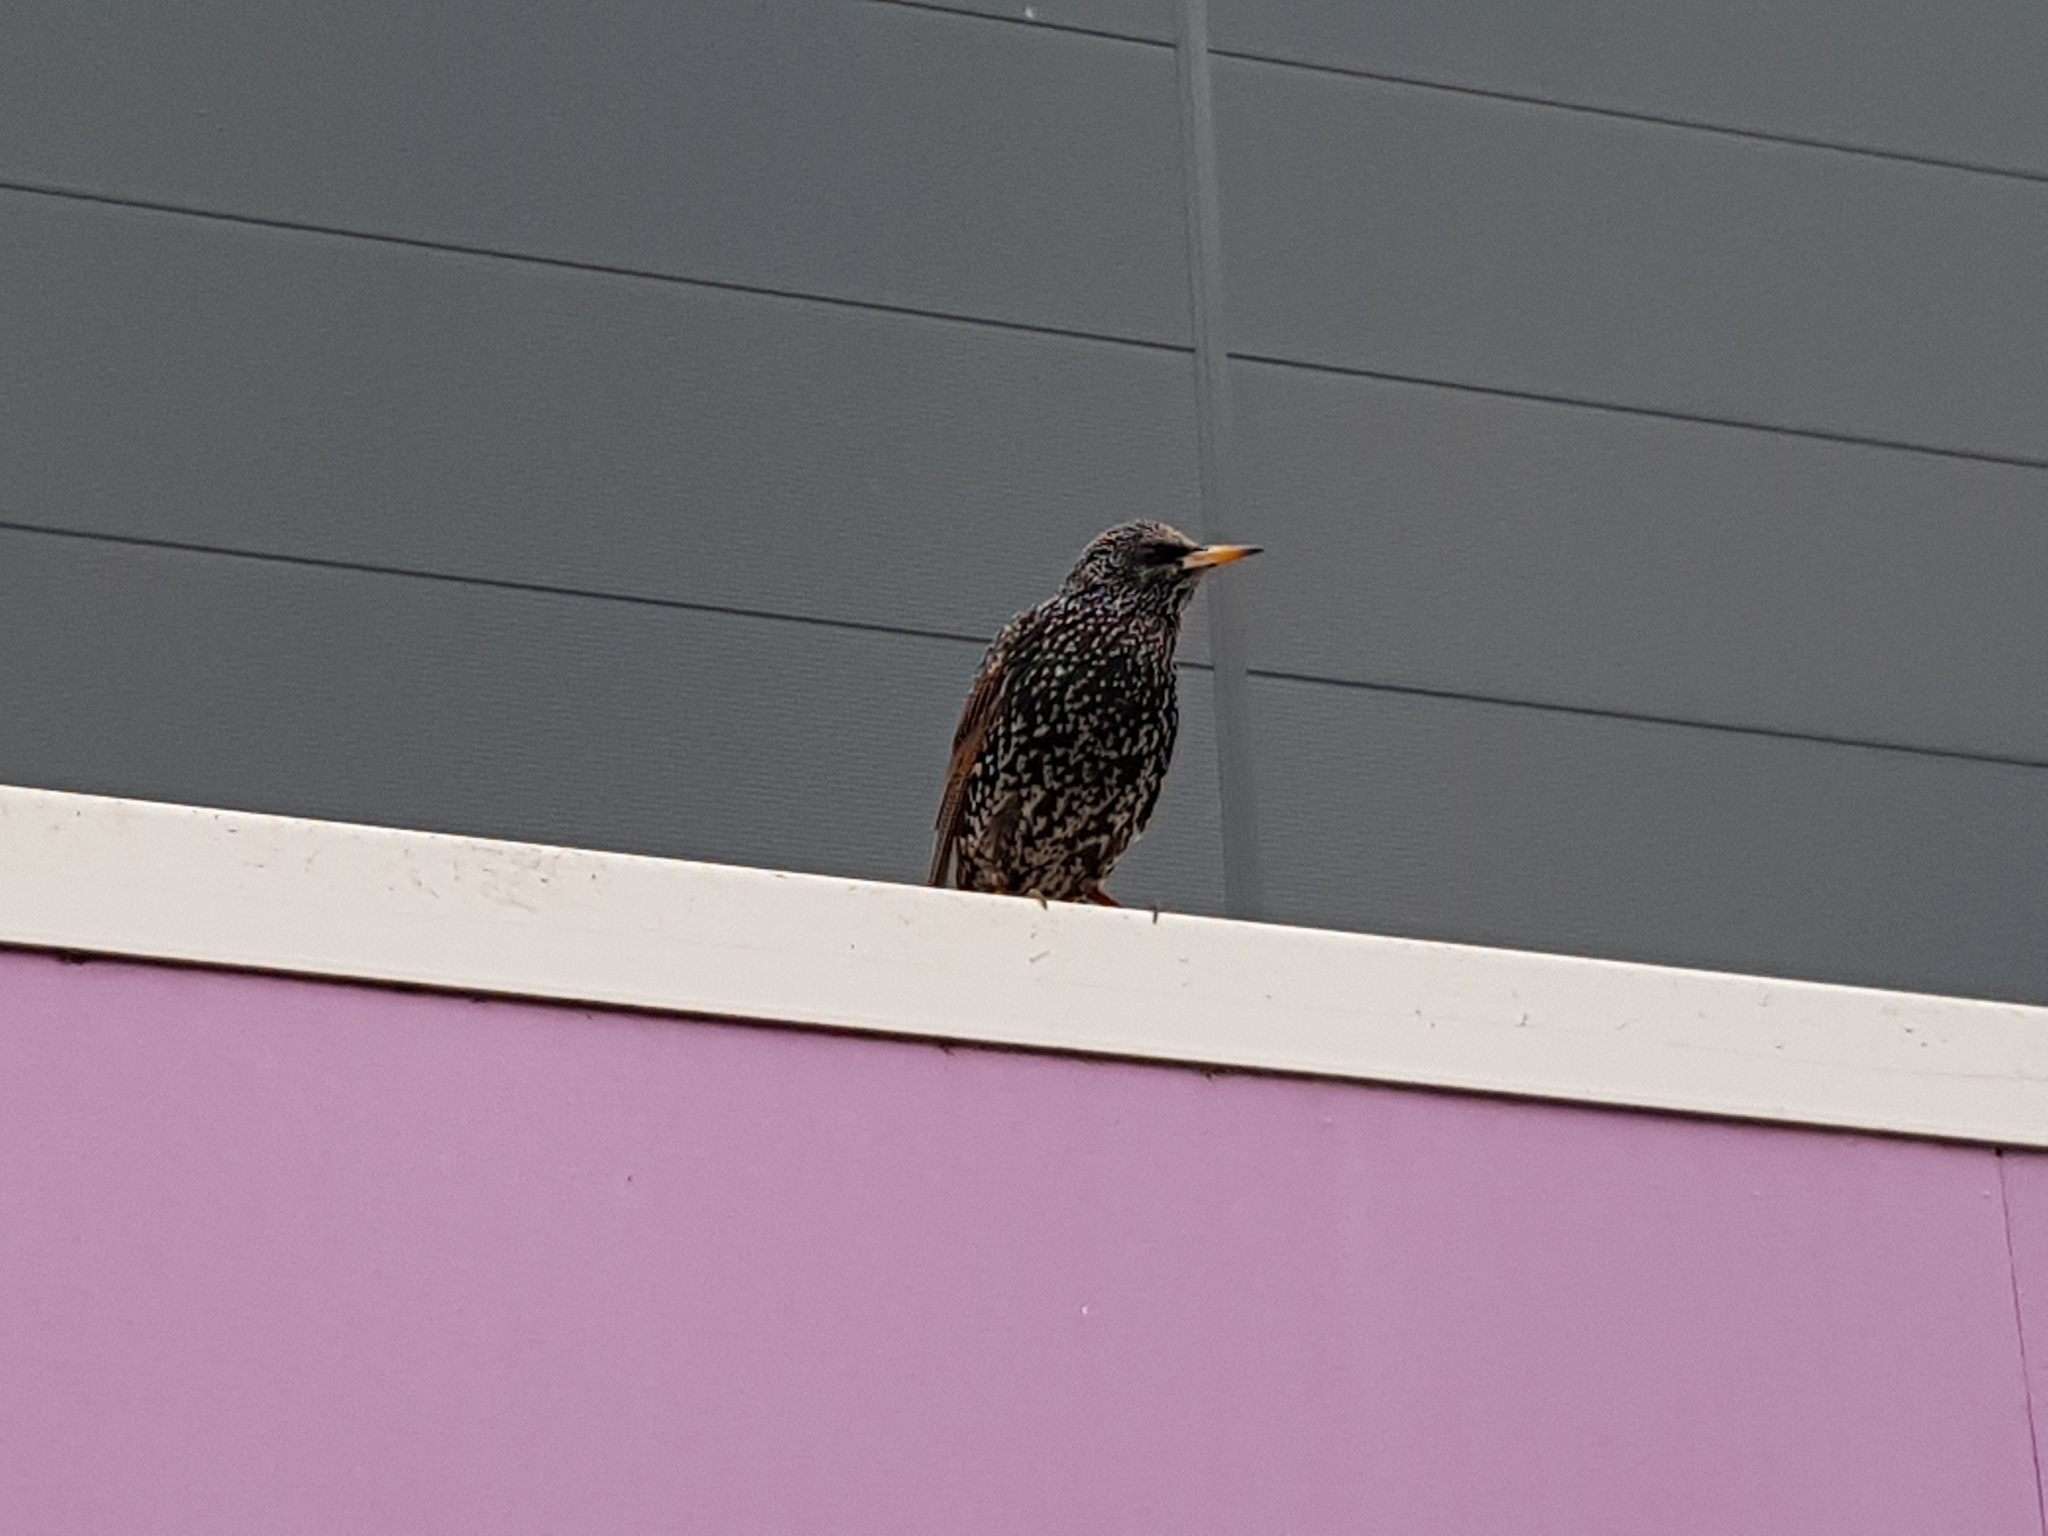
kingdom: Animalia
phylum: Chordata
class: Aves
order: Passeriformes
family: Sturnidae
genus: Sturnus
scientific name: Sturnus vulgaris
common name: Common starling
